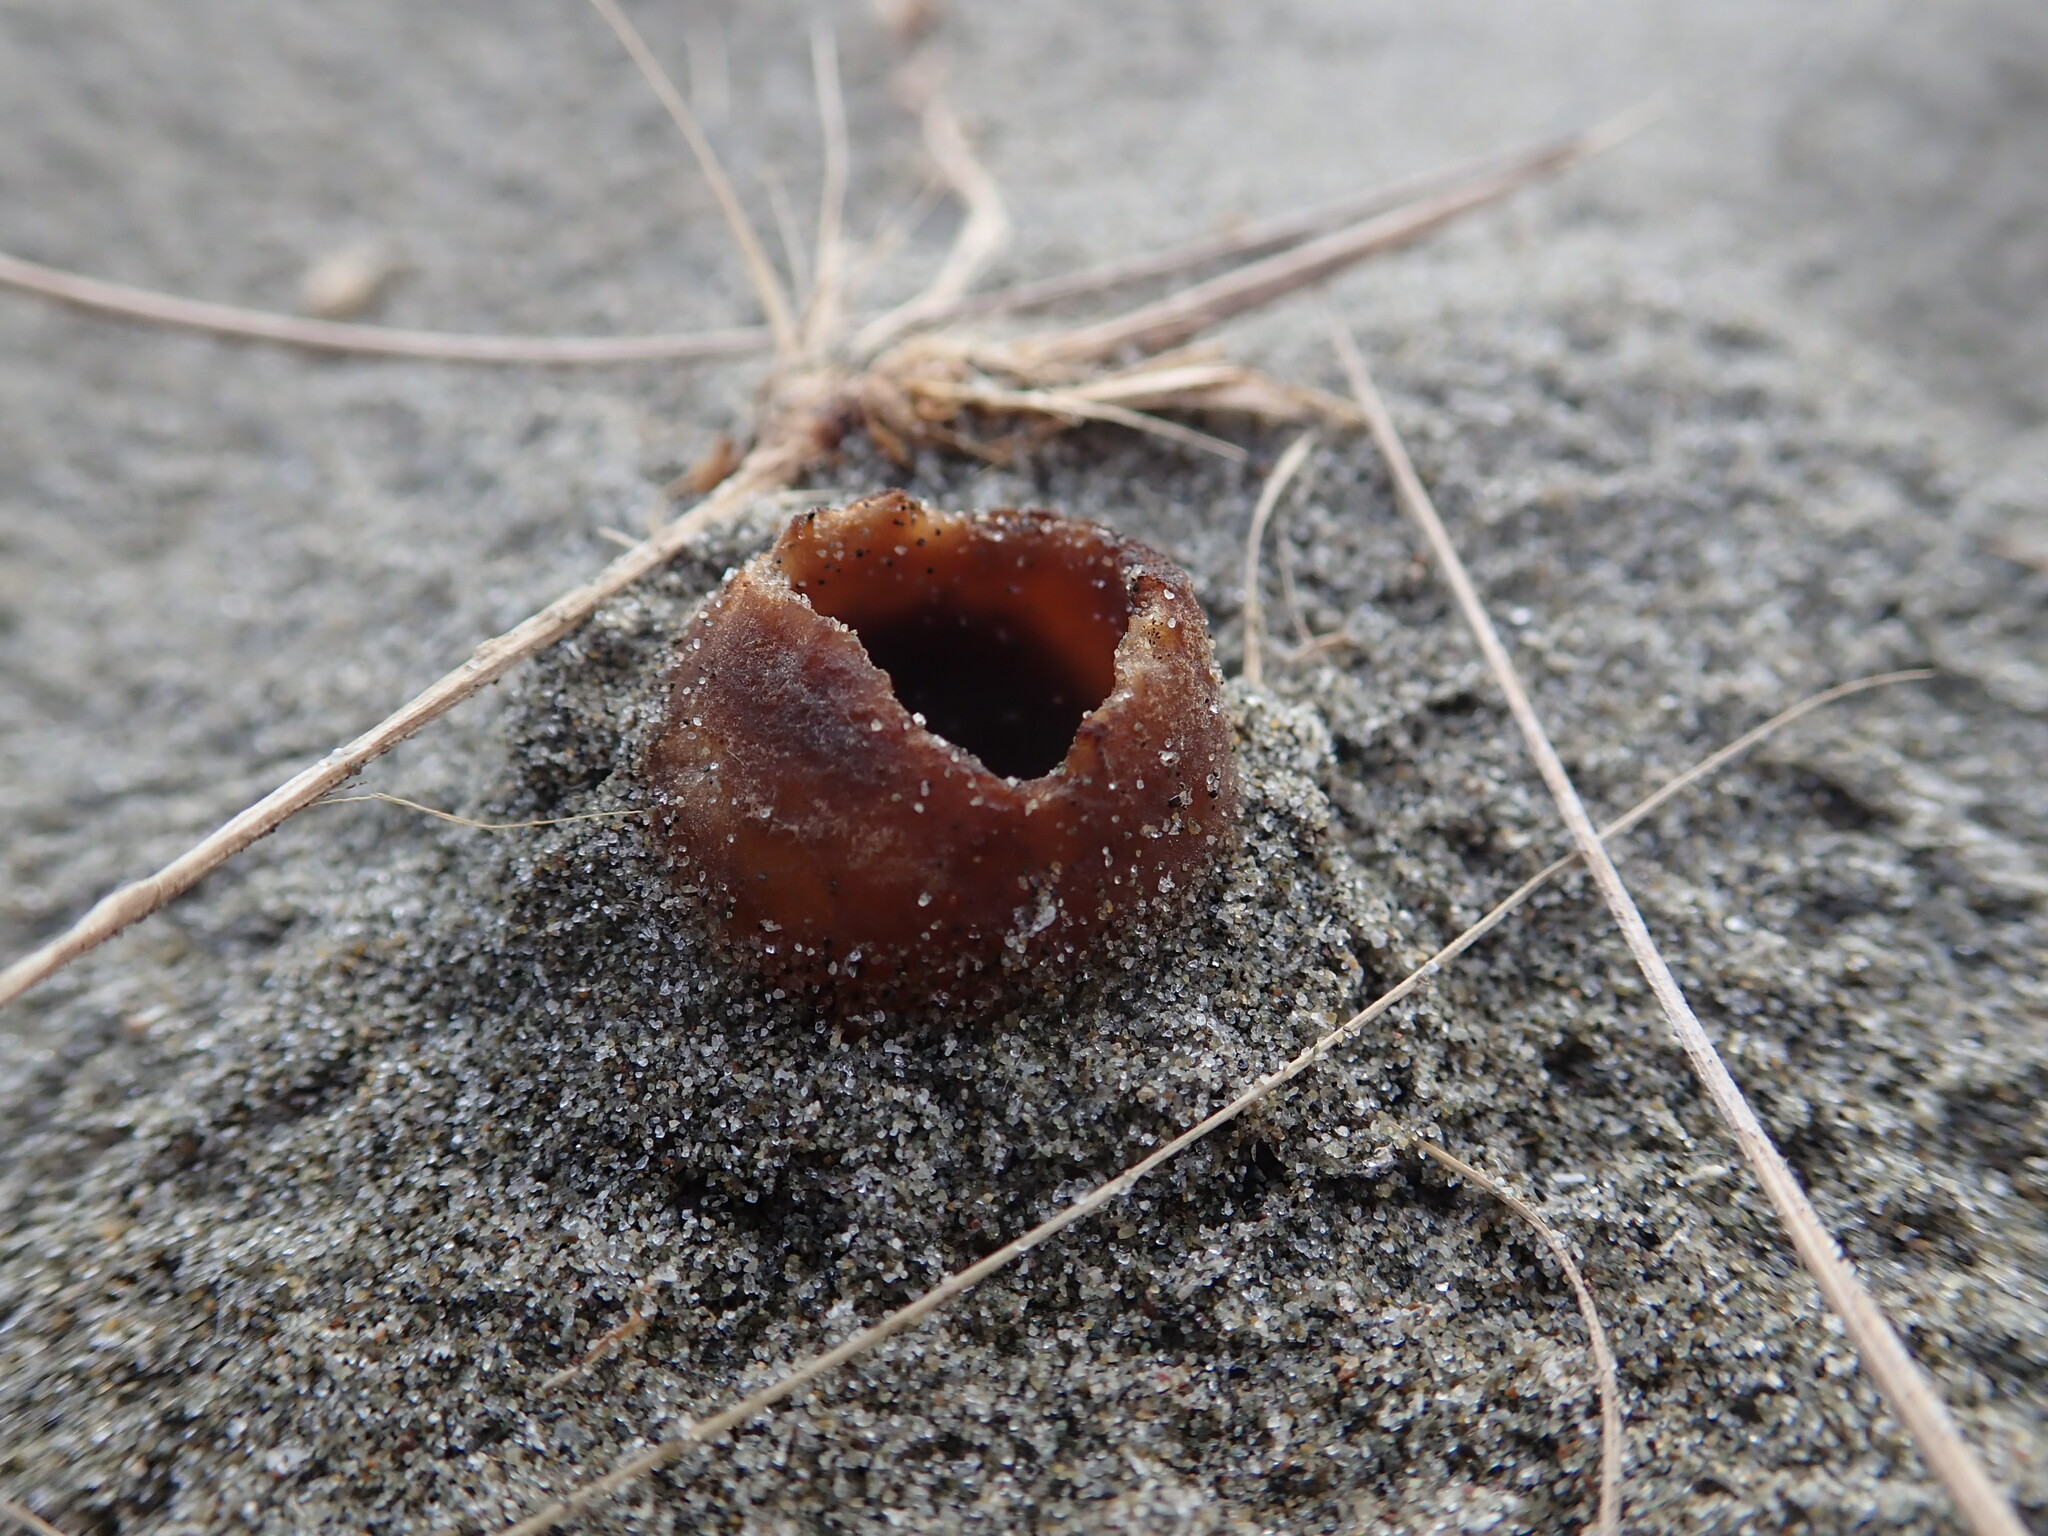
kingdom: Fungi
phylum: Ascomycota
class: Pezizomycetes
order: Pezizales
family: Pezizaceae
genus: Peziza
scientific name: Peziza oceanica
